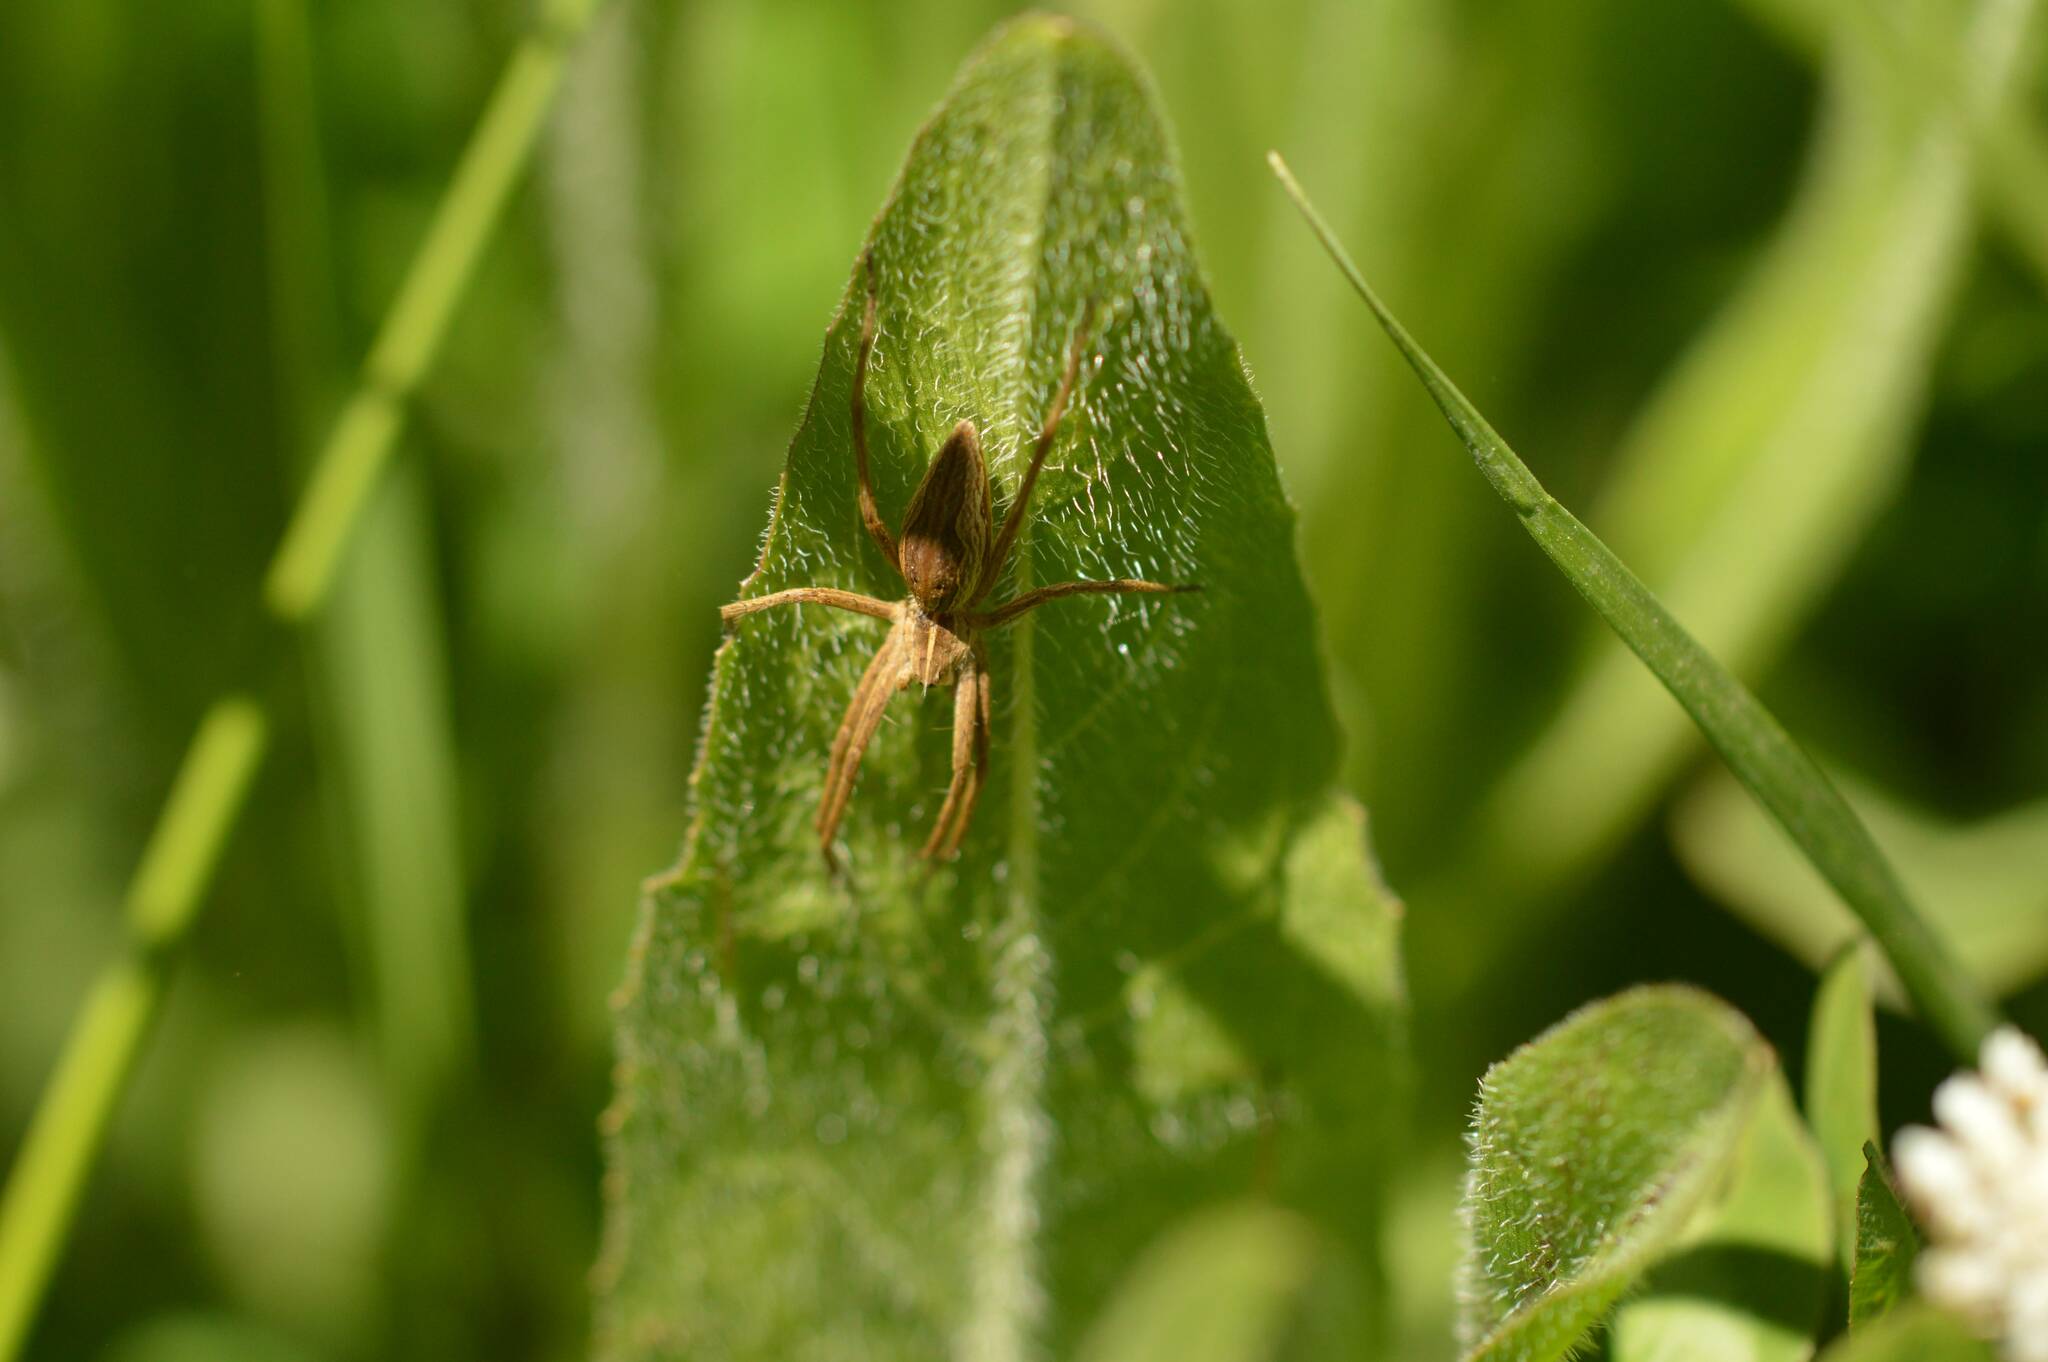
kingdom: Animalia
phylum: Arthropoda
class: Arachnida
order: Araneae
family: Pisauridae
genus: Pisaura
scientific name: Pisaura mirabilis
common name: Tent spider
